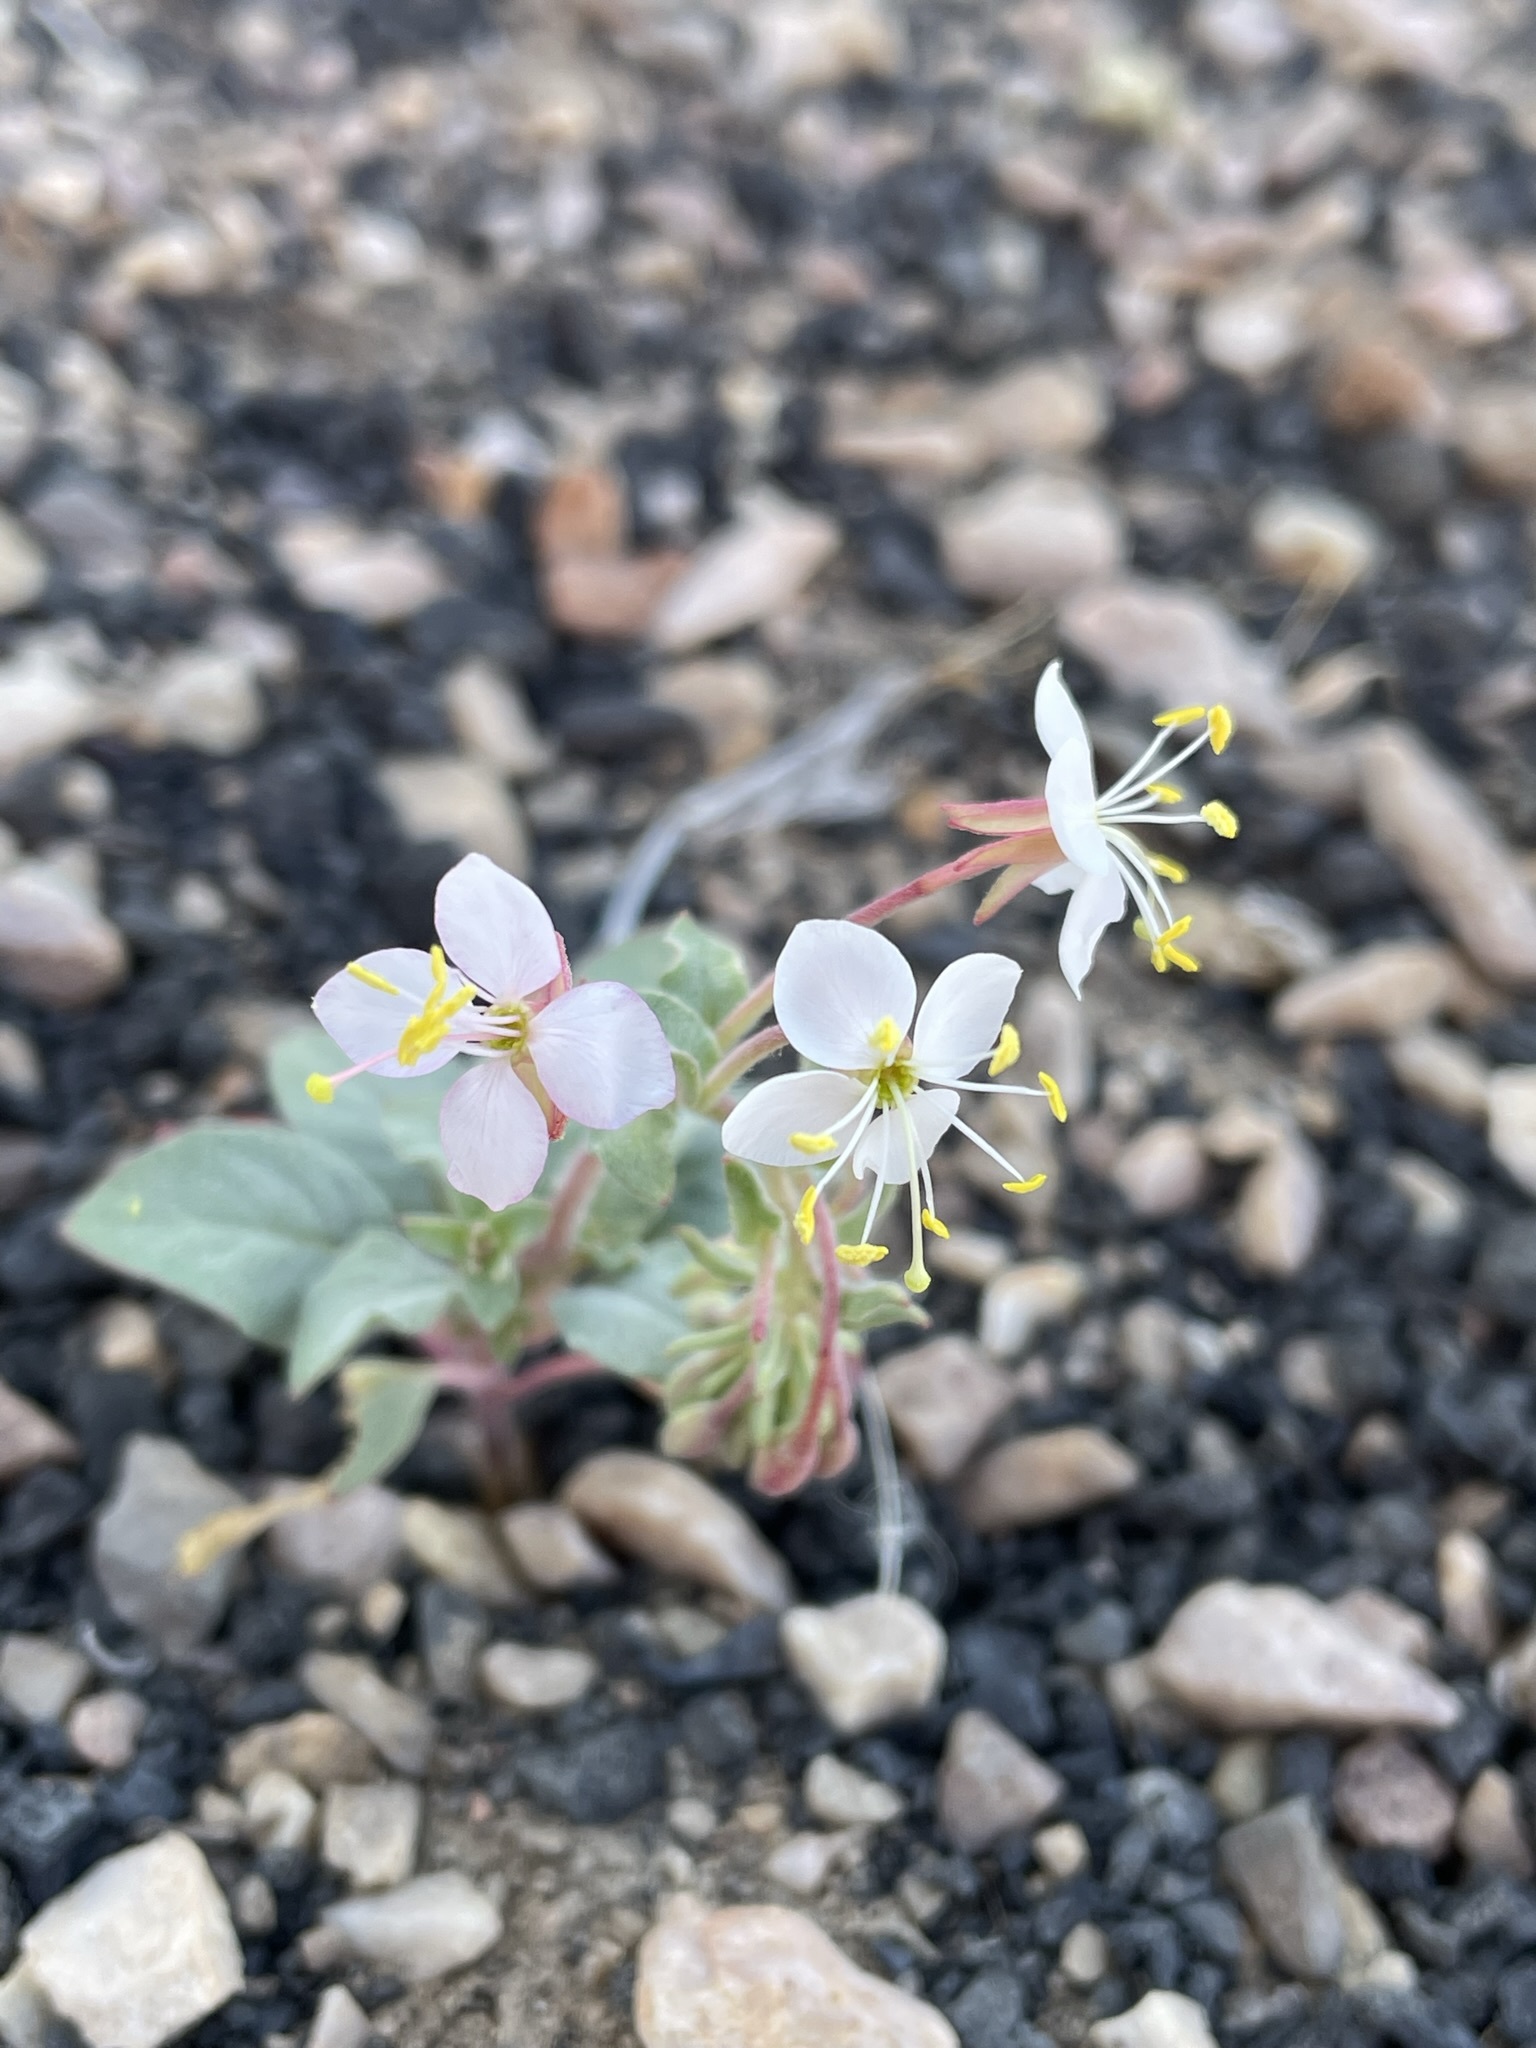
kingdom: Plantae
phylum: Tracheophyta
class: Magnoliopsida
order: Myrtales
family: Onagraceae
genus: Eremothera
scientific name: Eremothera boothii
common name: Booth's evening primrose
